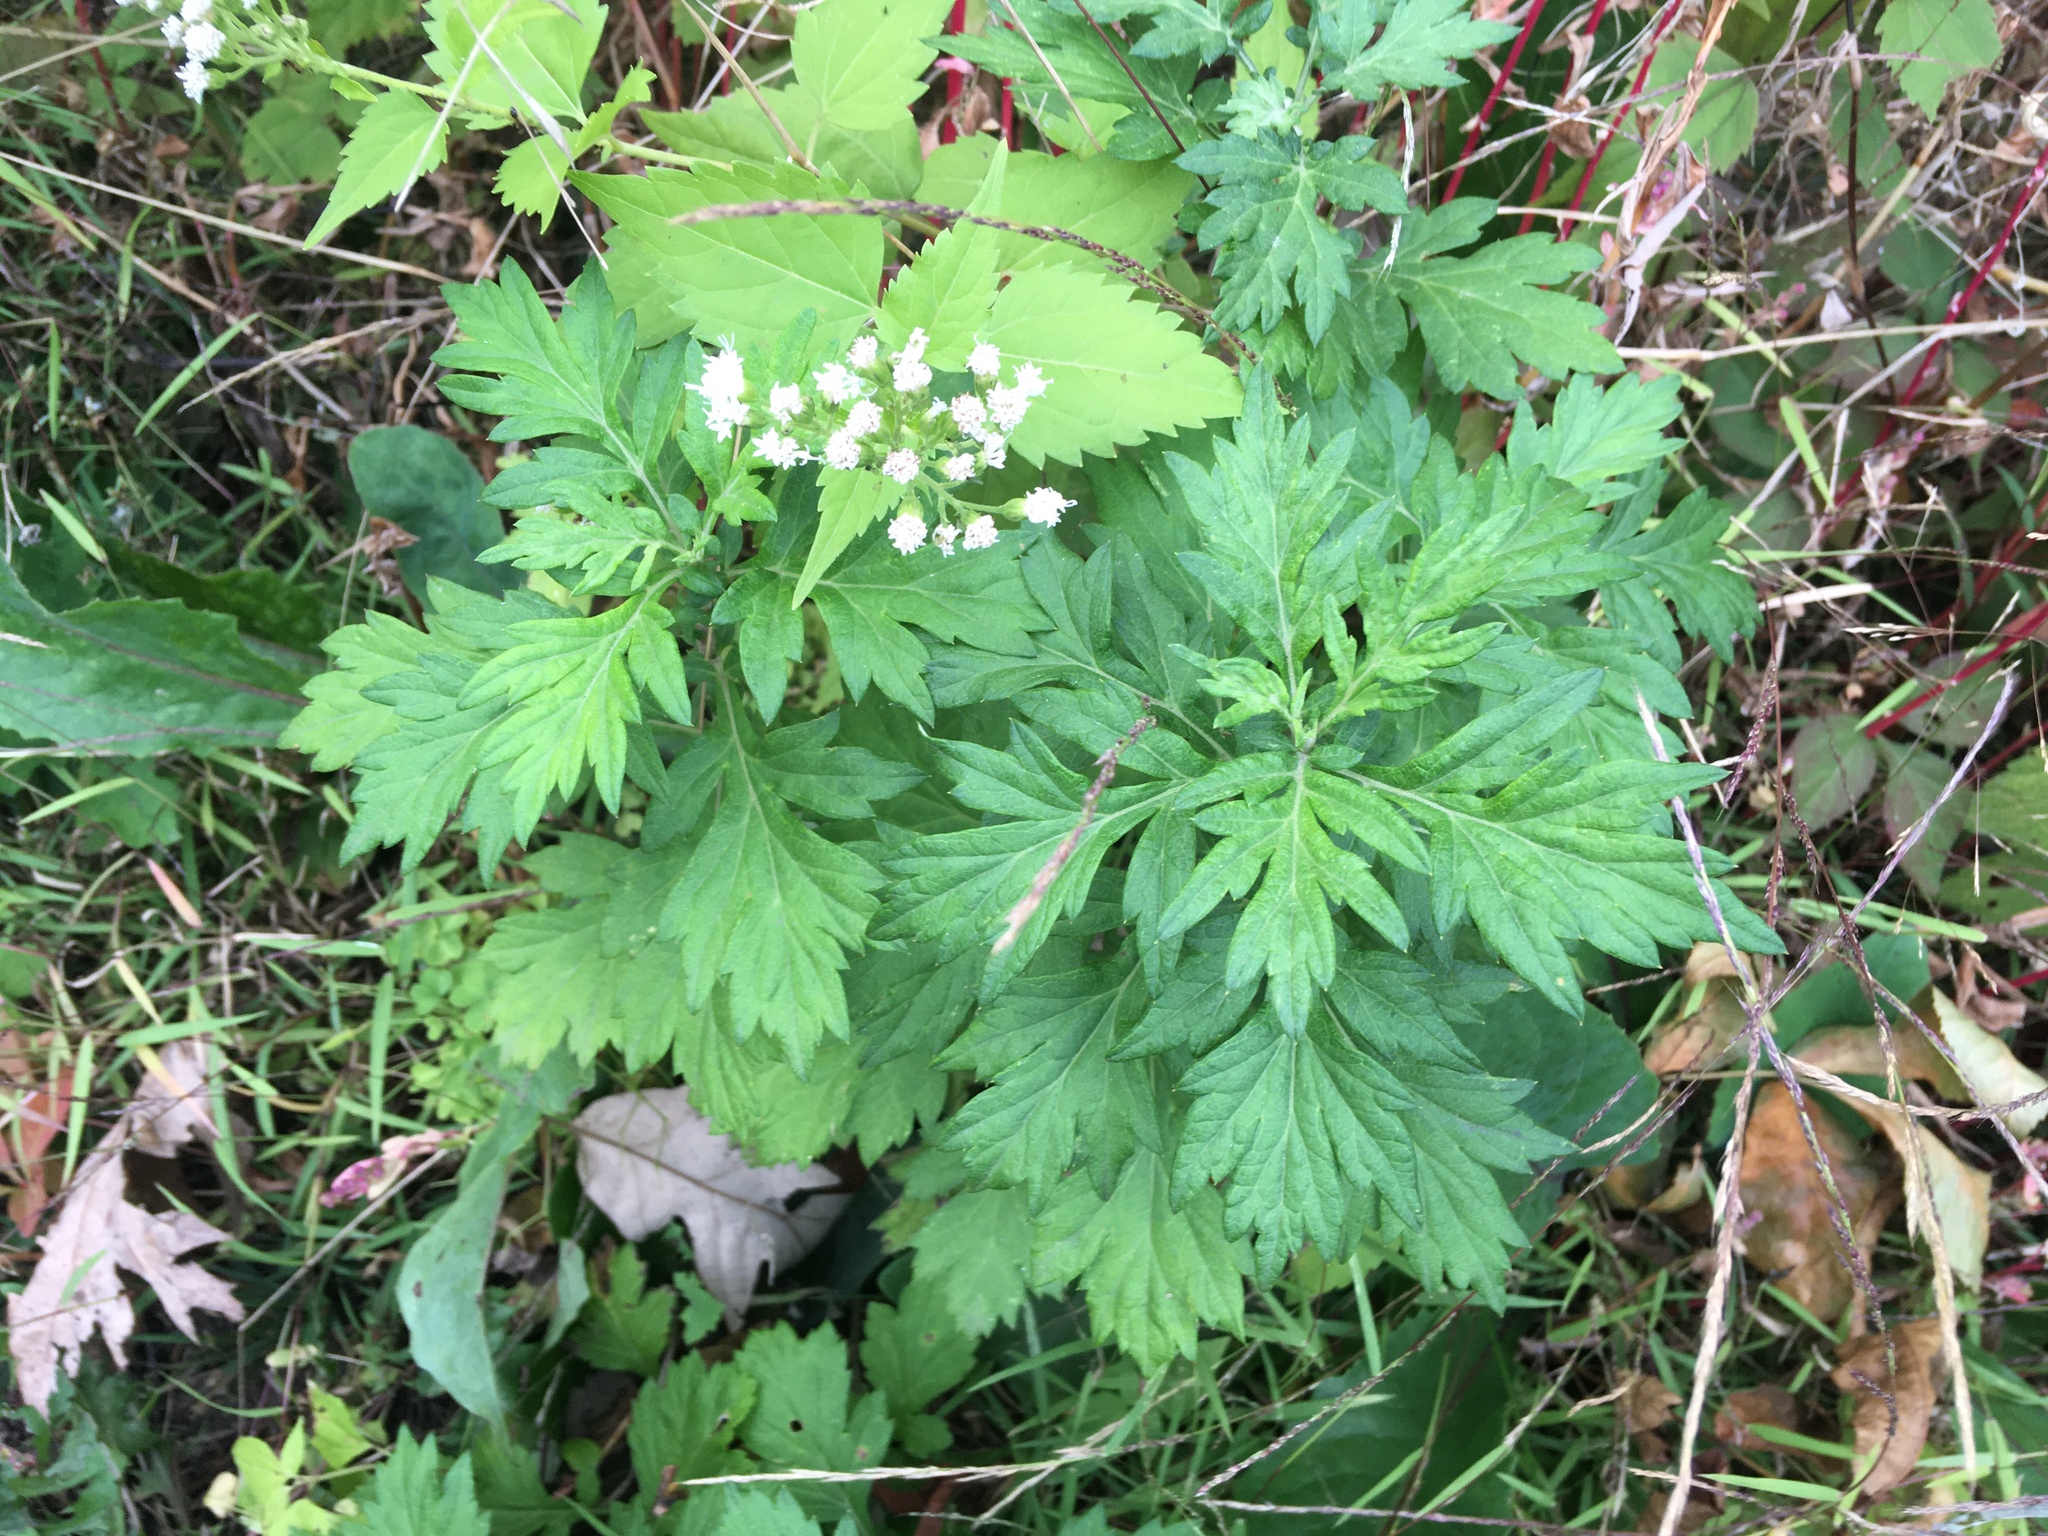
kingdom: Plantae
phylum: Tracheophyta
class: Magnoliopsida
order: Asterales
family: Asteraceae
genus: Artemisia
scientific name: Artemisia vulgaris
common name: Mugwort
